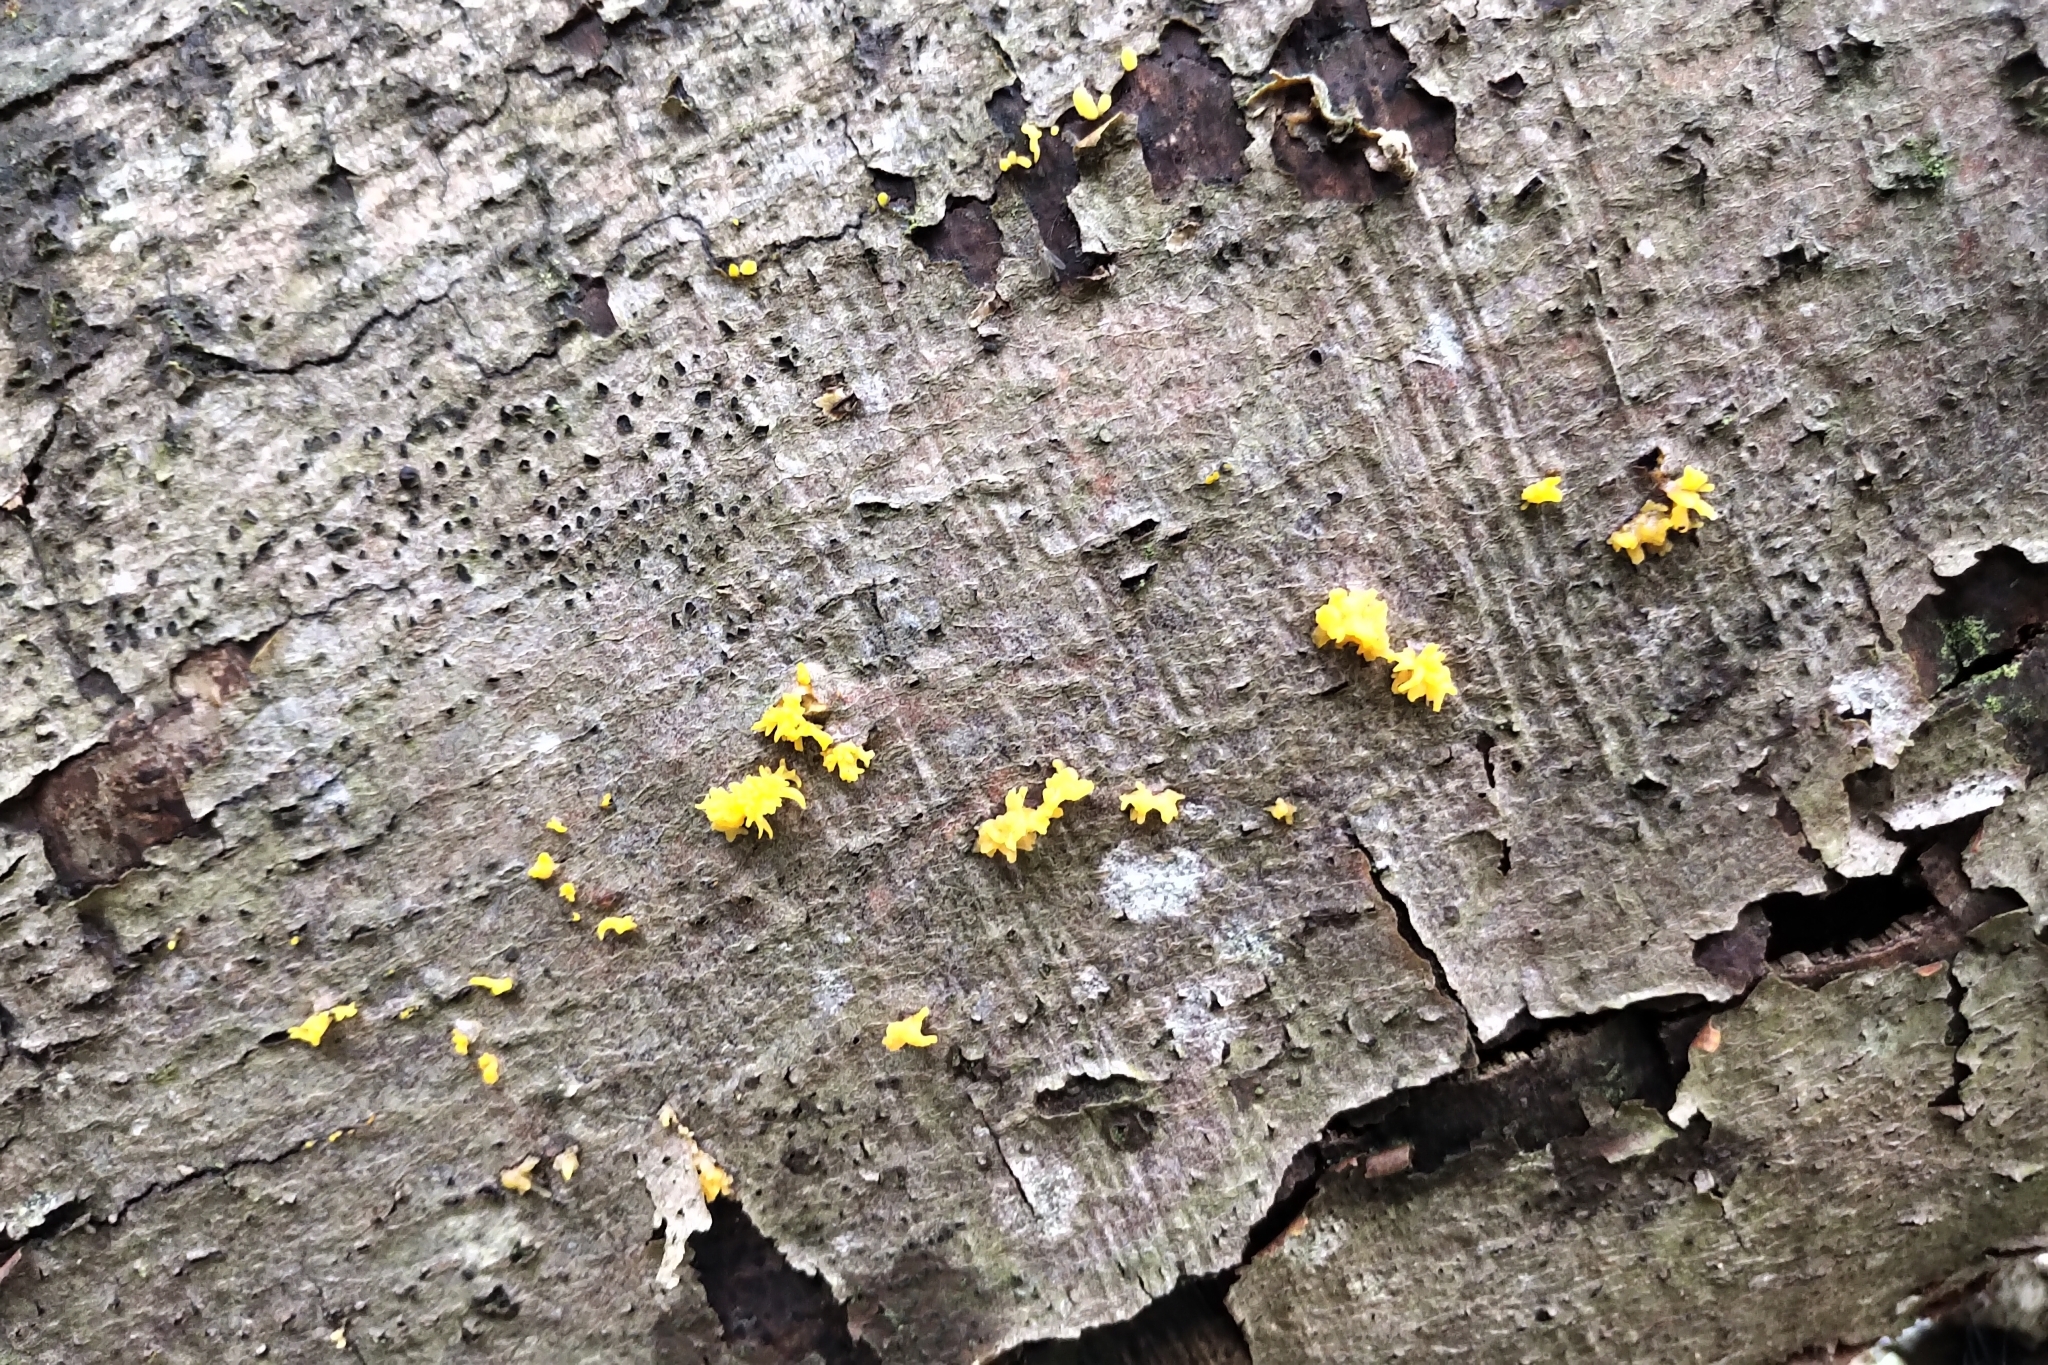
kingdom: Fungi
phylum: Basidiomycota
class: Dacrymycetes
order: Dacrymycetales
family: Dacrymycetaceae
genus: Calocera
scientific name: Calocera cornea
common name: Small stagshorn
